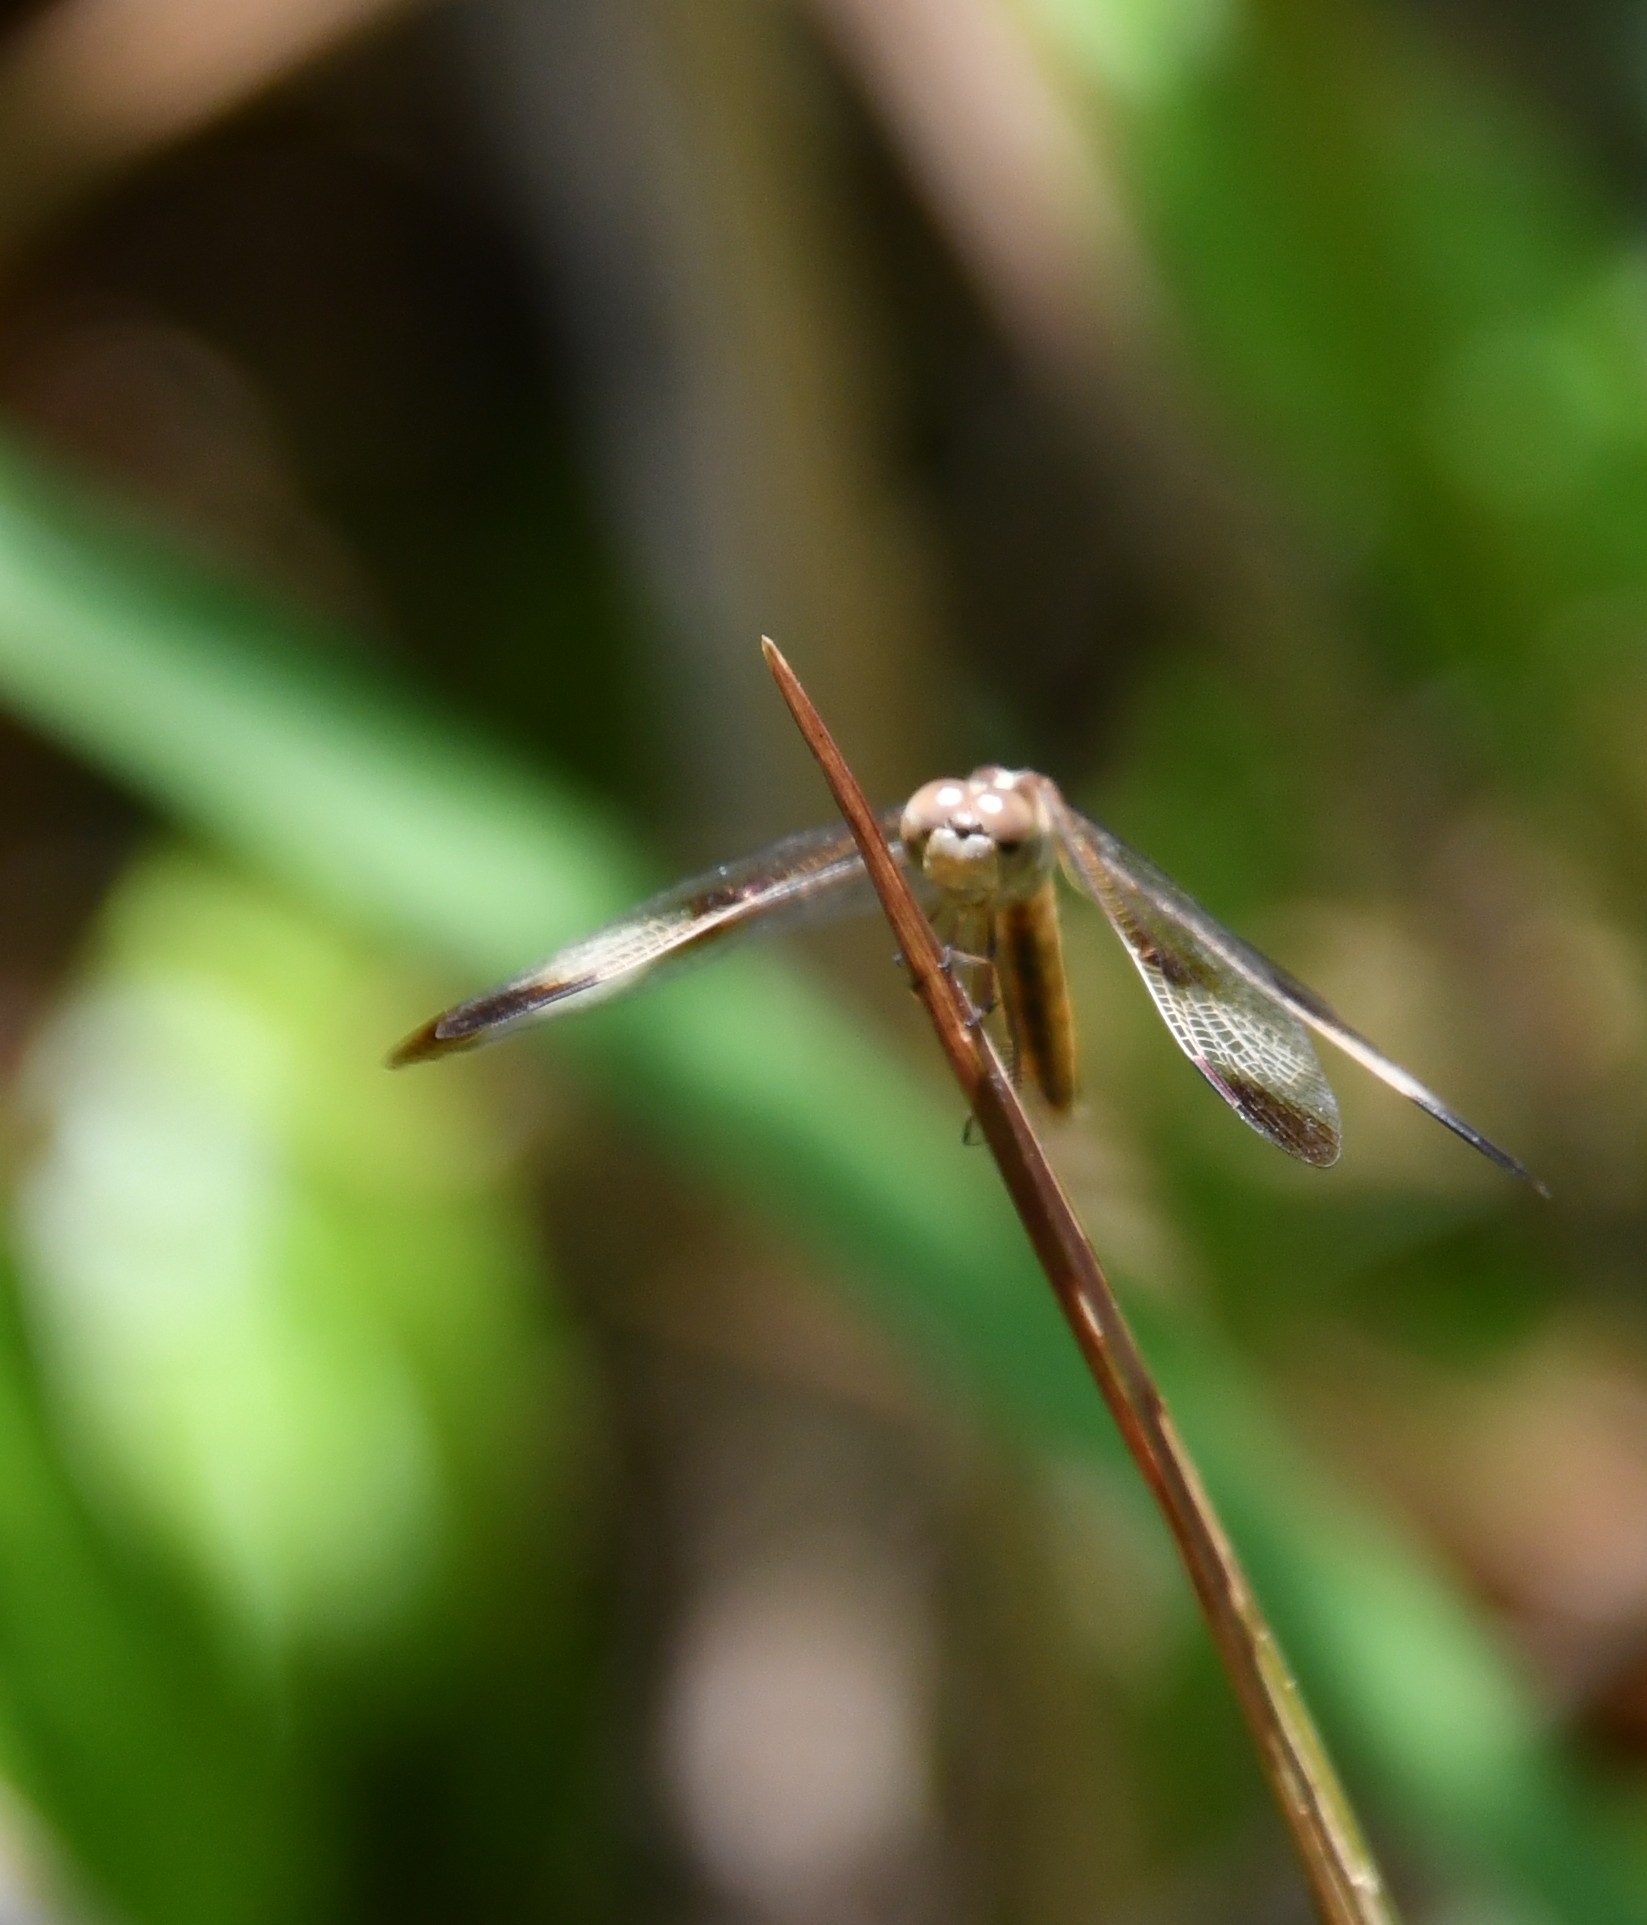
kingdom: Animalia
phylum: Arthropoda
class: Insecta
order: Odonata
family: Libellulidae
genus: Neurothemis
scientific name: Neurothemis tullia
